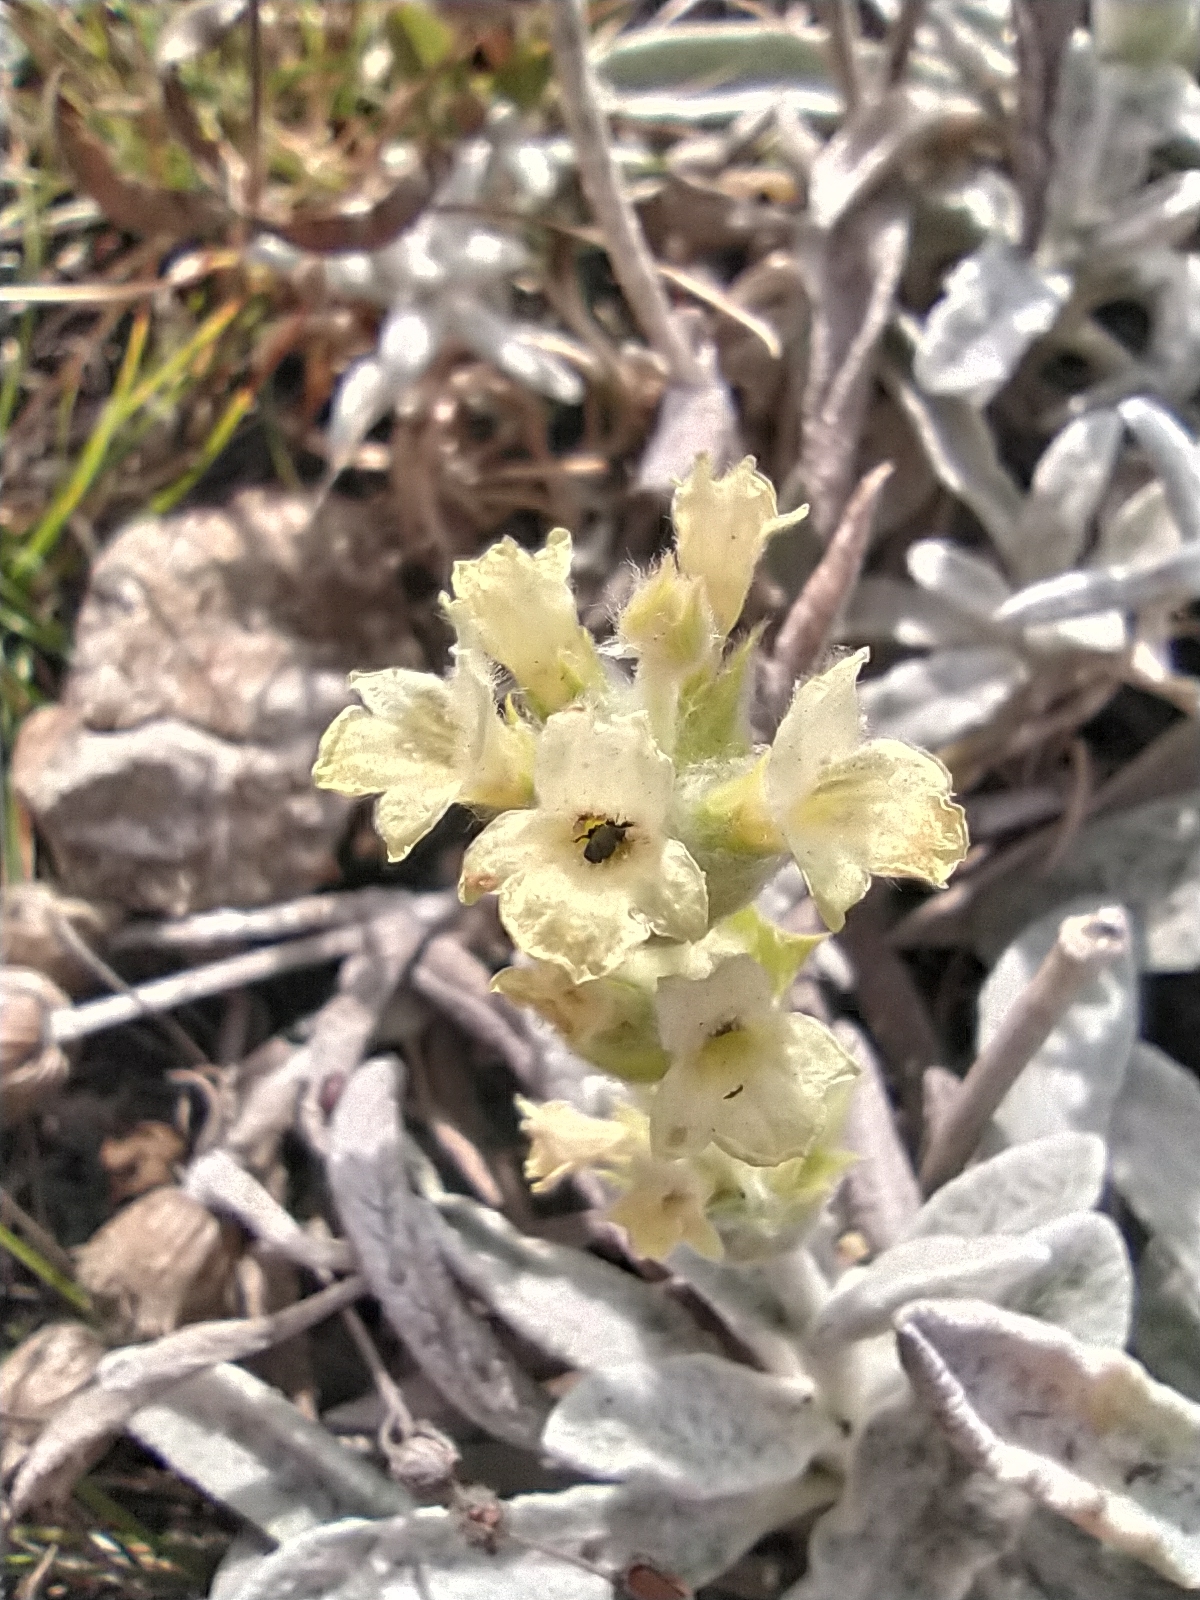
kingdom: Plantae
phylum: Tracheophyta
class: Magnoliopsida
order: Lamiales
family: Lamiaceae
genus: Sideritis
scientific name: Sideritis taurica
